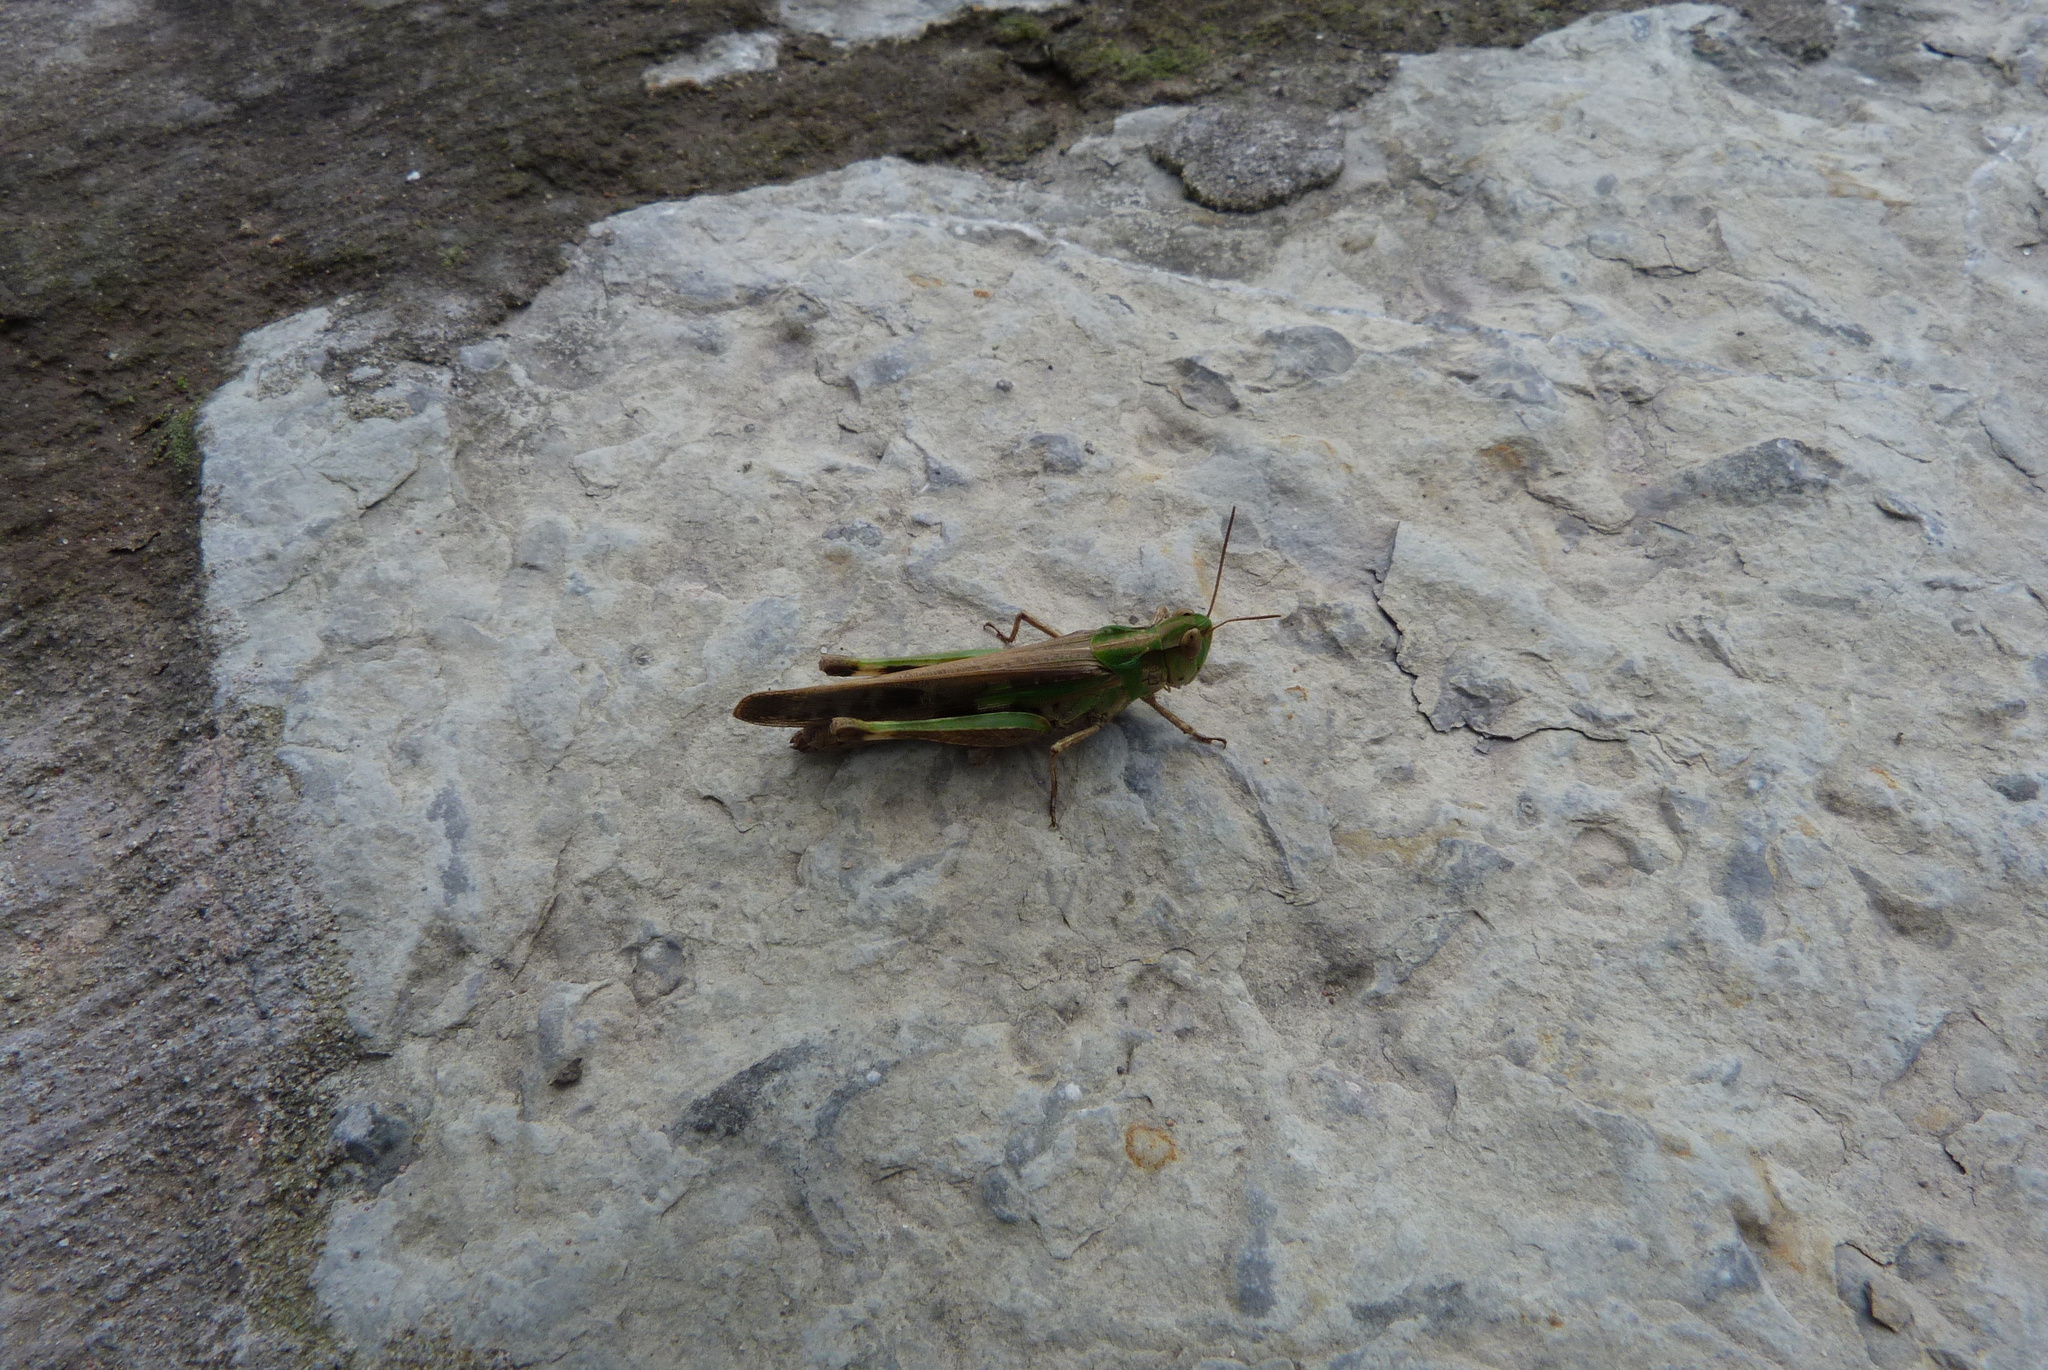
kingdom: Animalia
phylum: Arthropoda
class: Insecta
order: Orthoptera
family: Acrididae
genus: Aiolopus
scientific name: Aiolopus thalassinus
